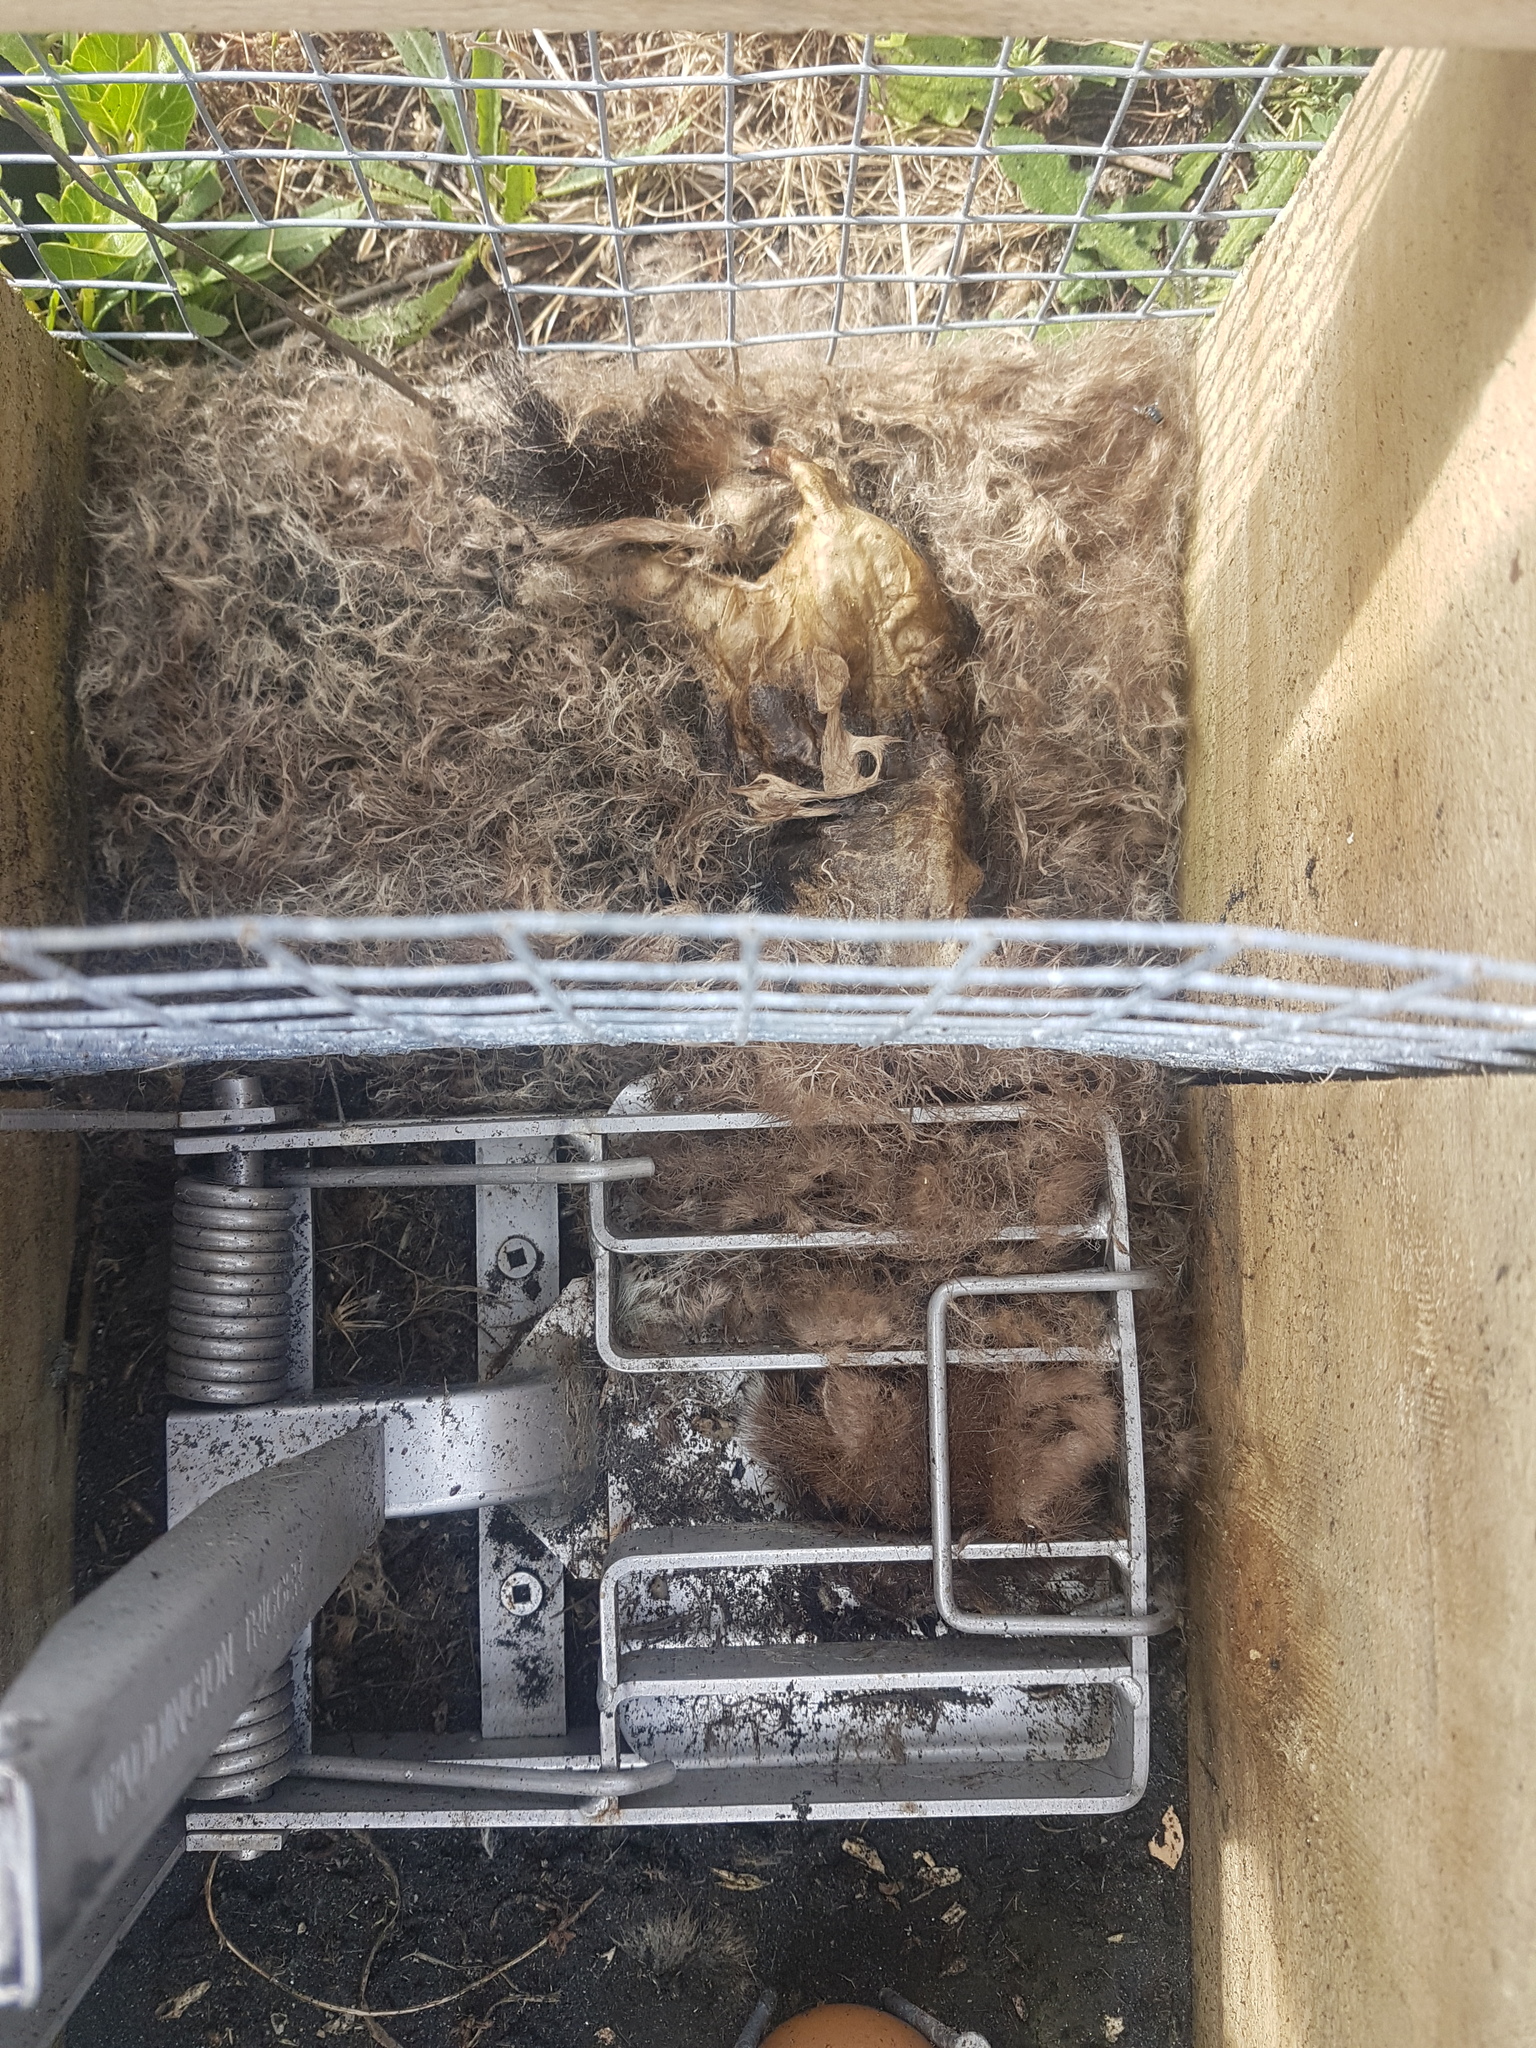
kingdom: Animalia
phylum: Chordata
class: Mammalia
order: Carnivora
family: Mustelidae
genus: Mustela
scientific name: Mustela erminea
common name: Stoat
